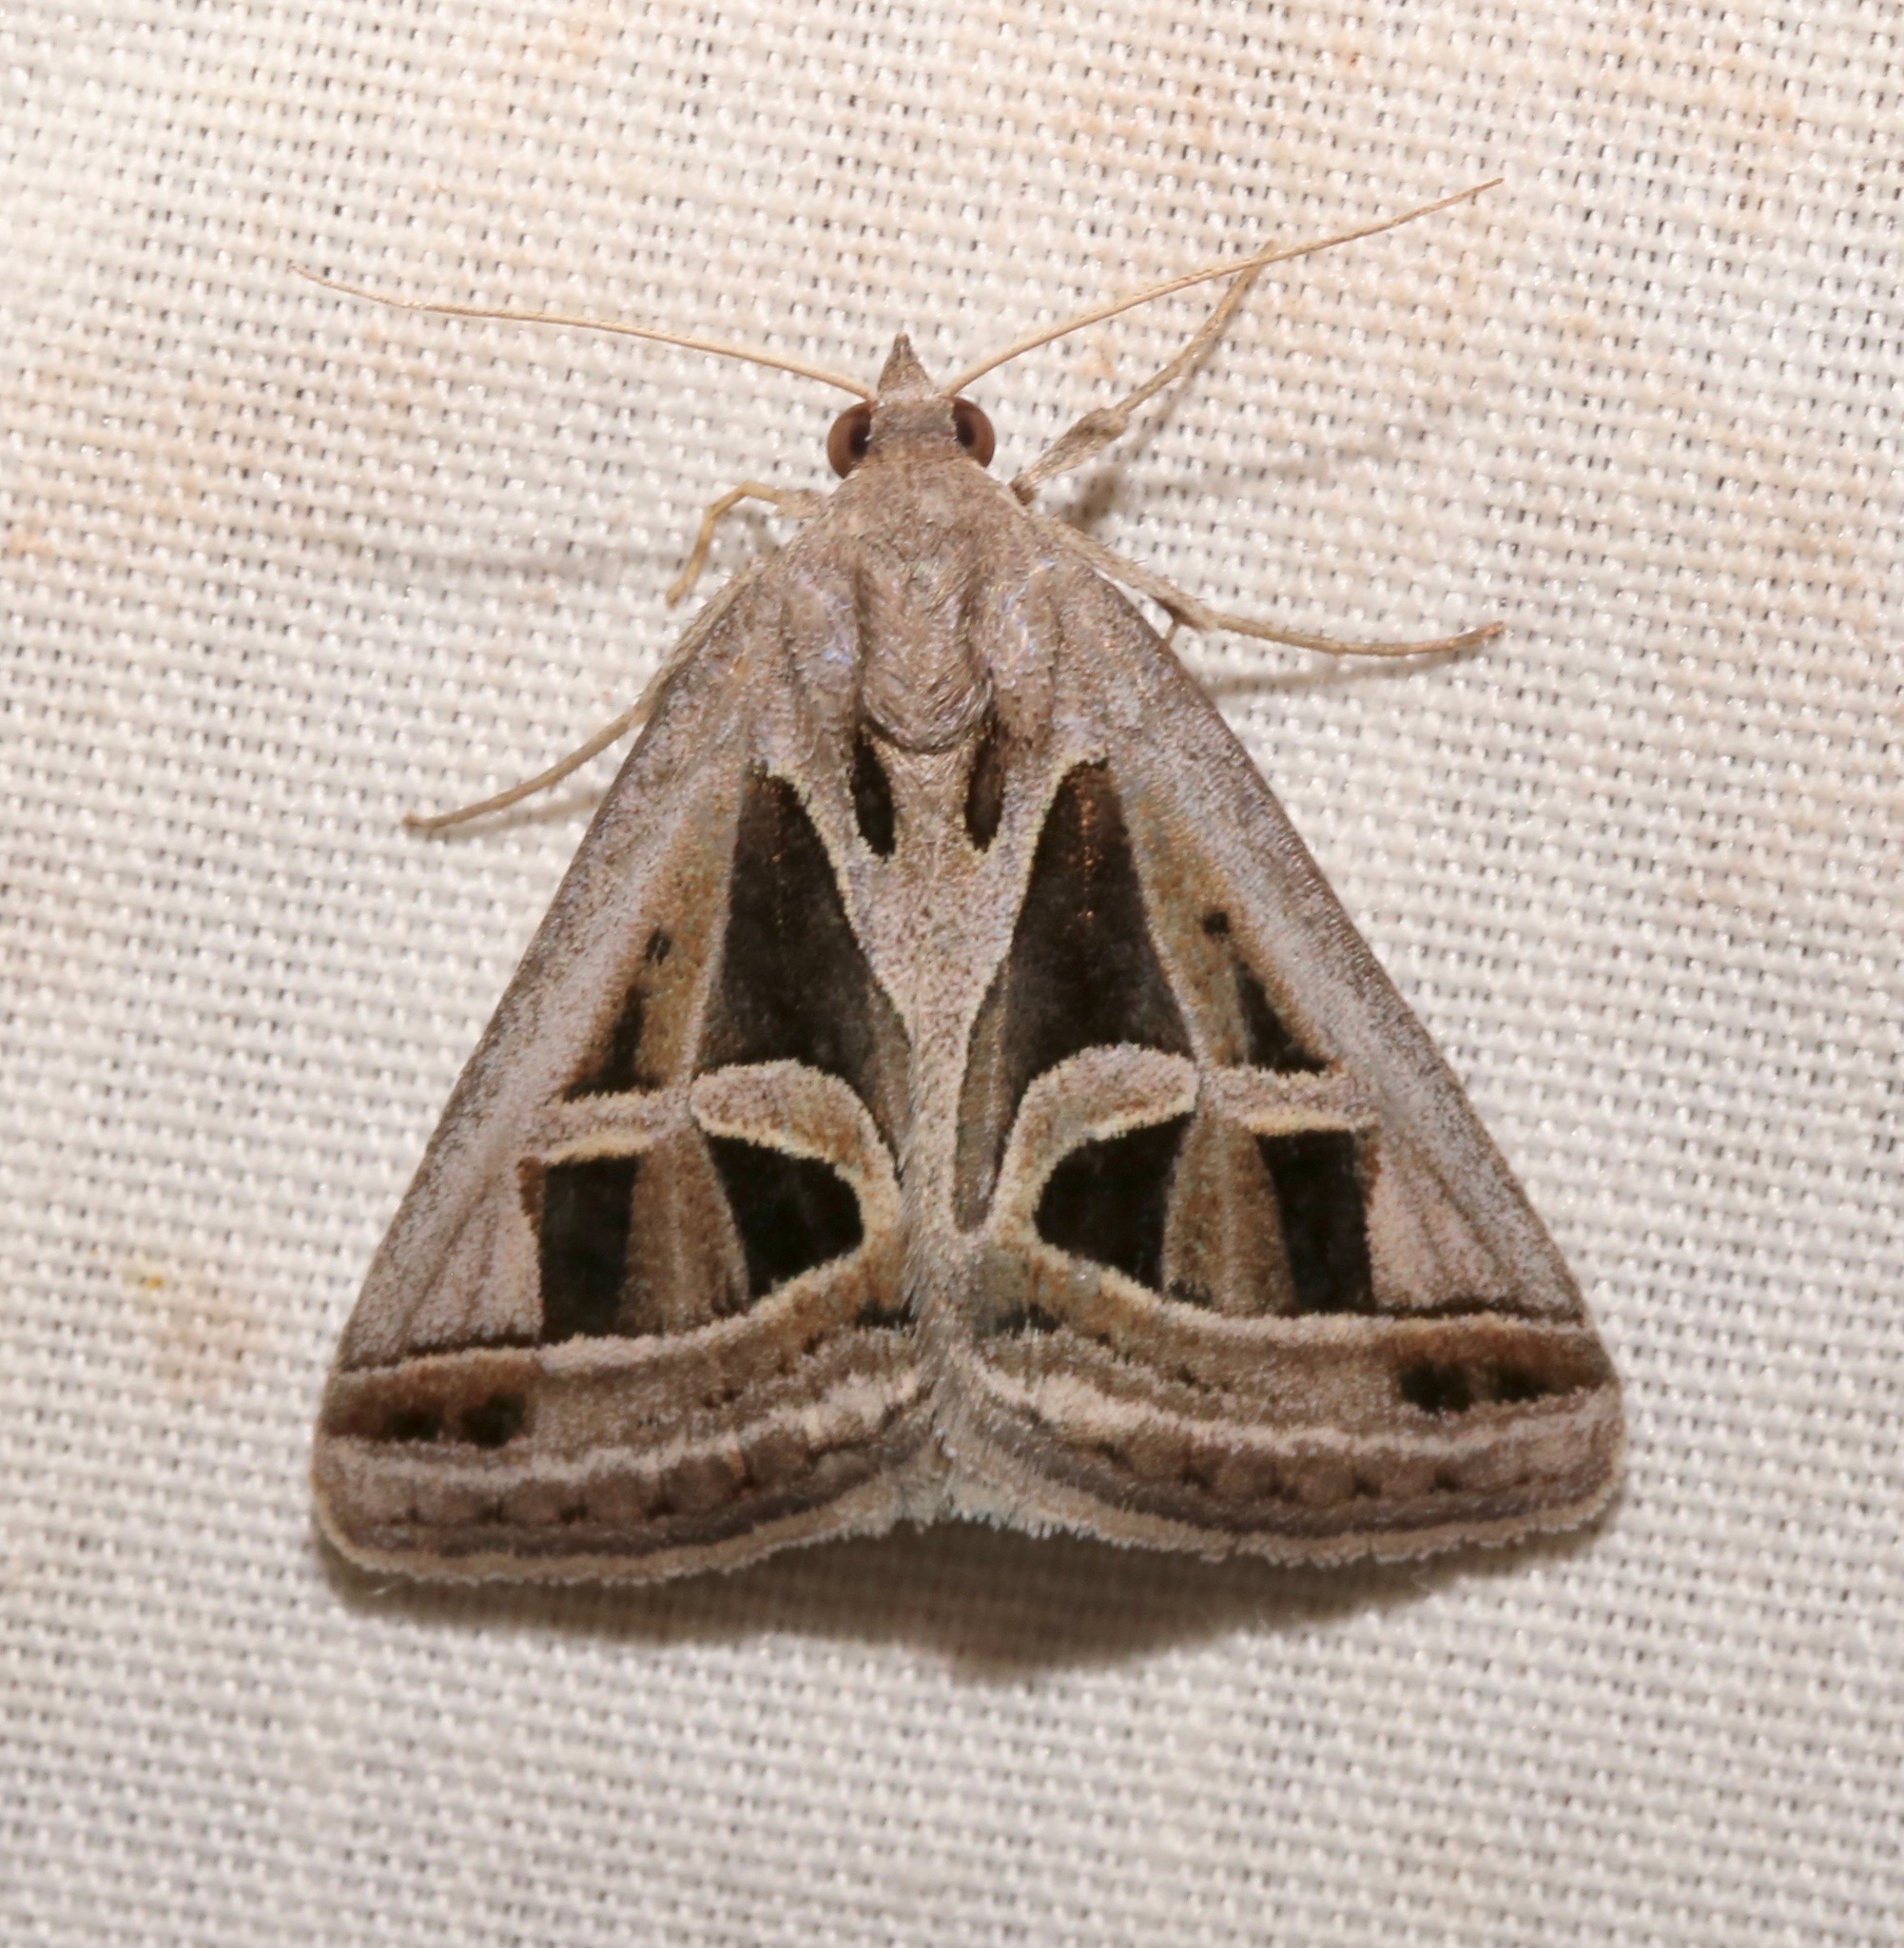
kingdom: Animalia
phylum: Arthropoda
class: Insecta
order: Lepidoptera
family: Erebidae
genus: Callistege
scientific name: Callistege intercalaris
